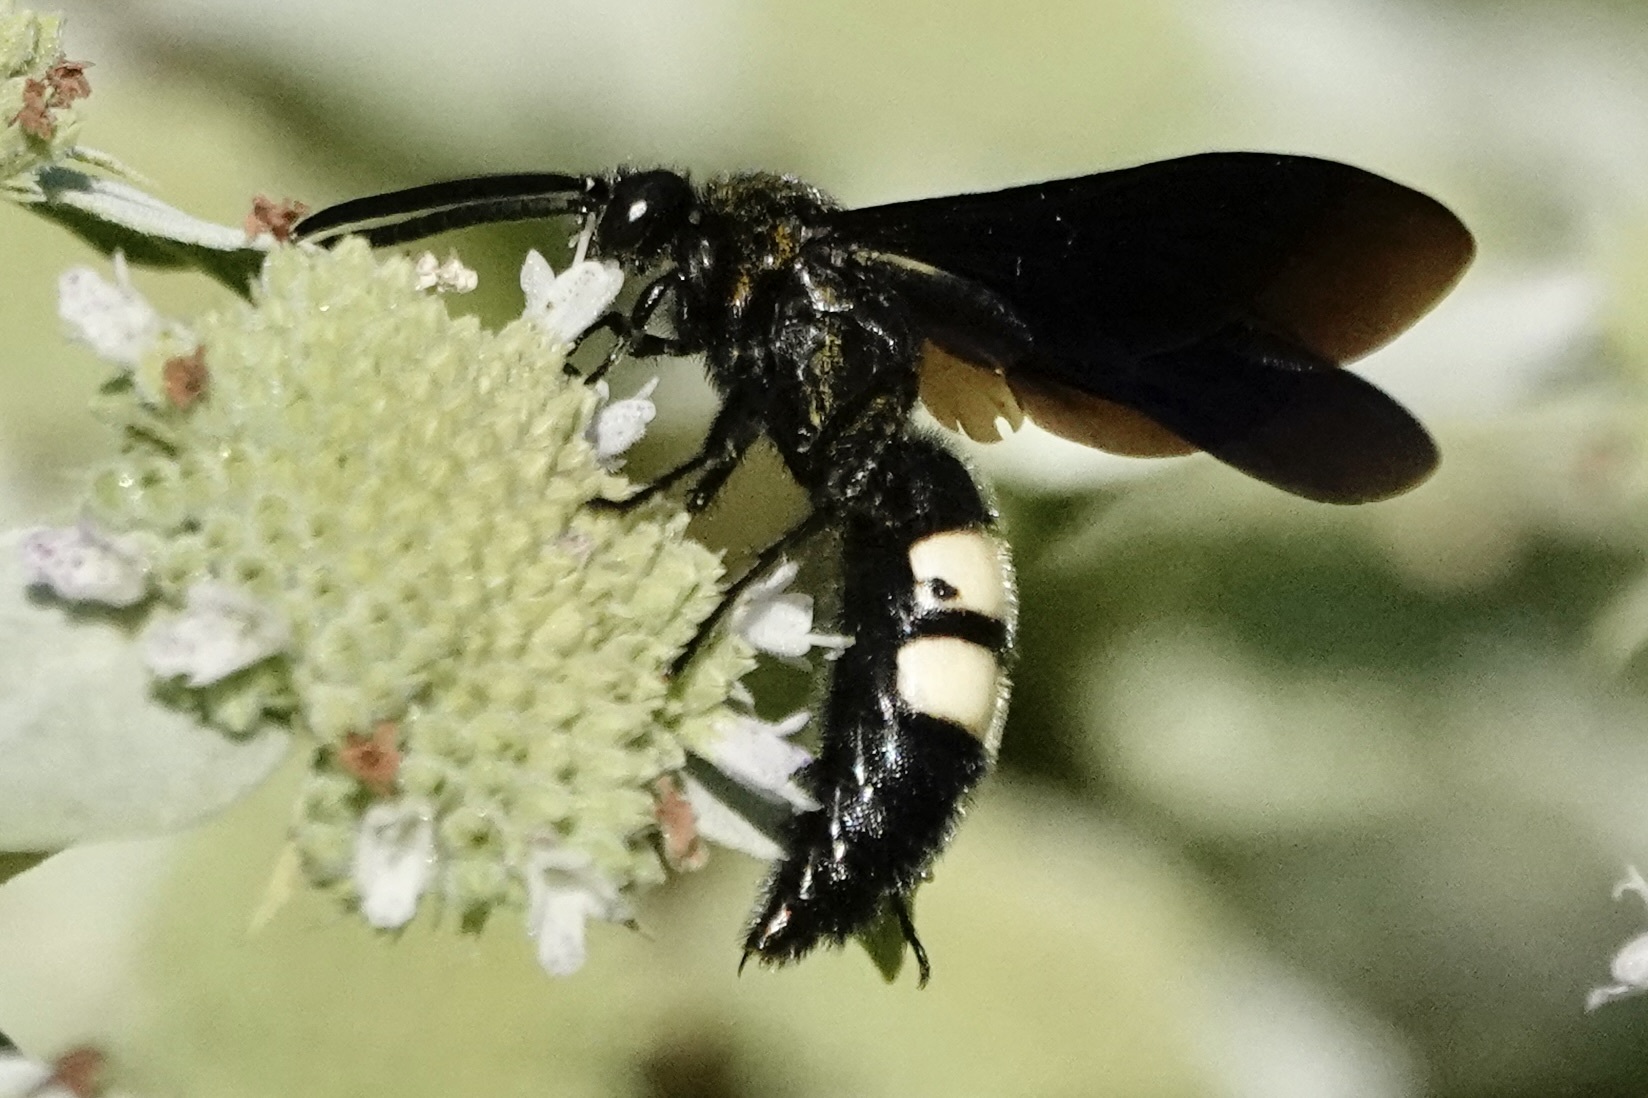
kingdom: Animalia
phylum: Arthropoda
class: Insecta
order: Hymenoptera
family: Scoliidae
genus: Scolia
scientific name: Scolia bicincta
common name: Double-banded scoliid wasp
